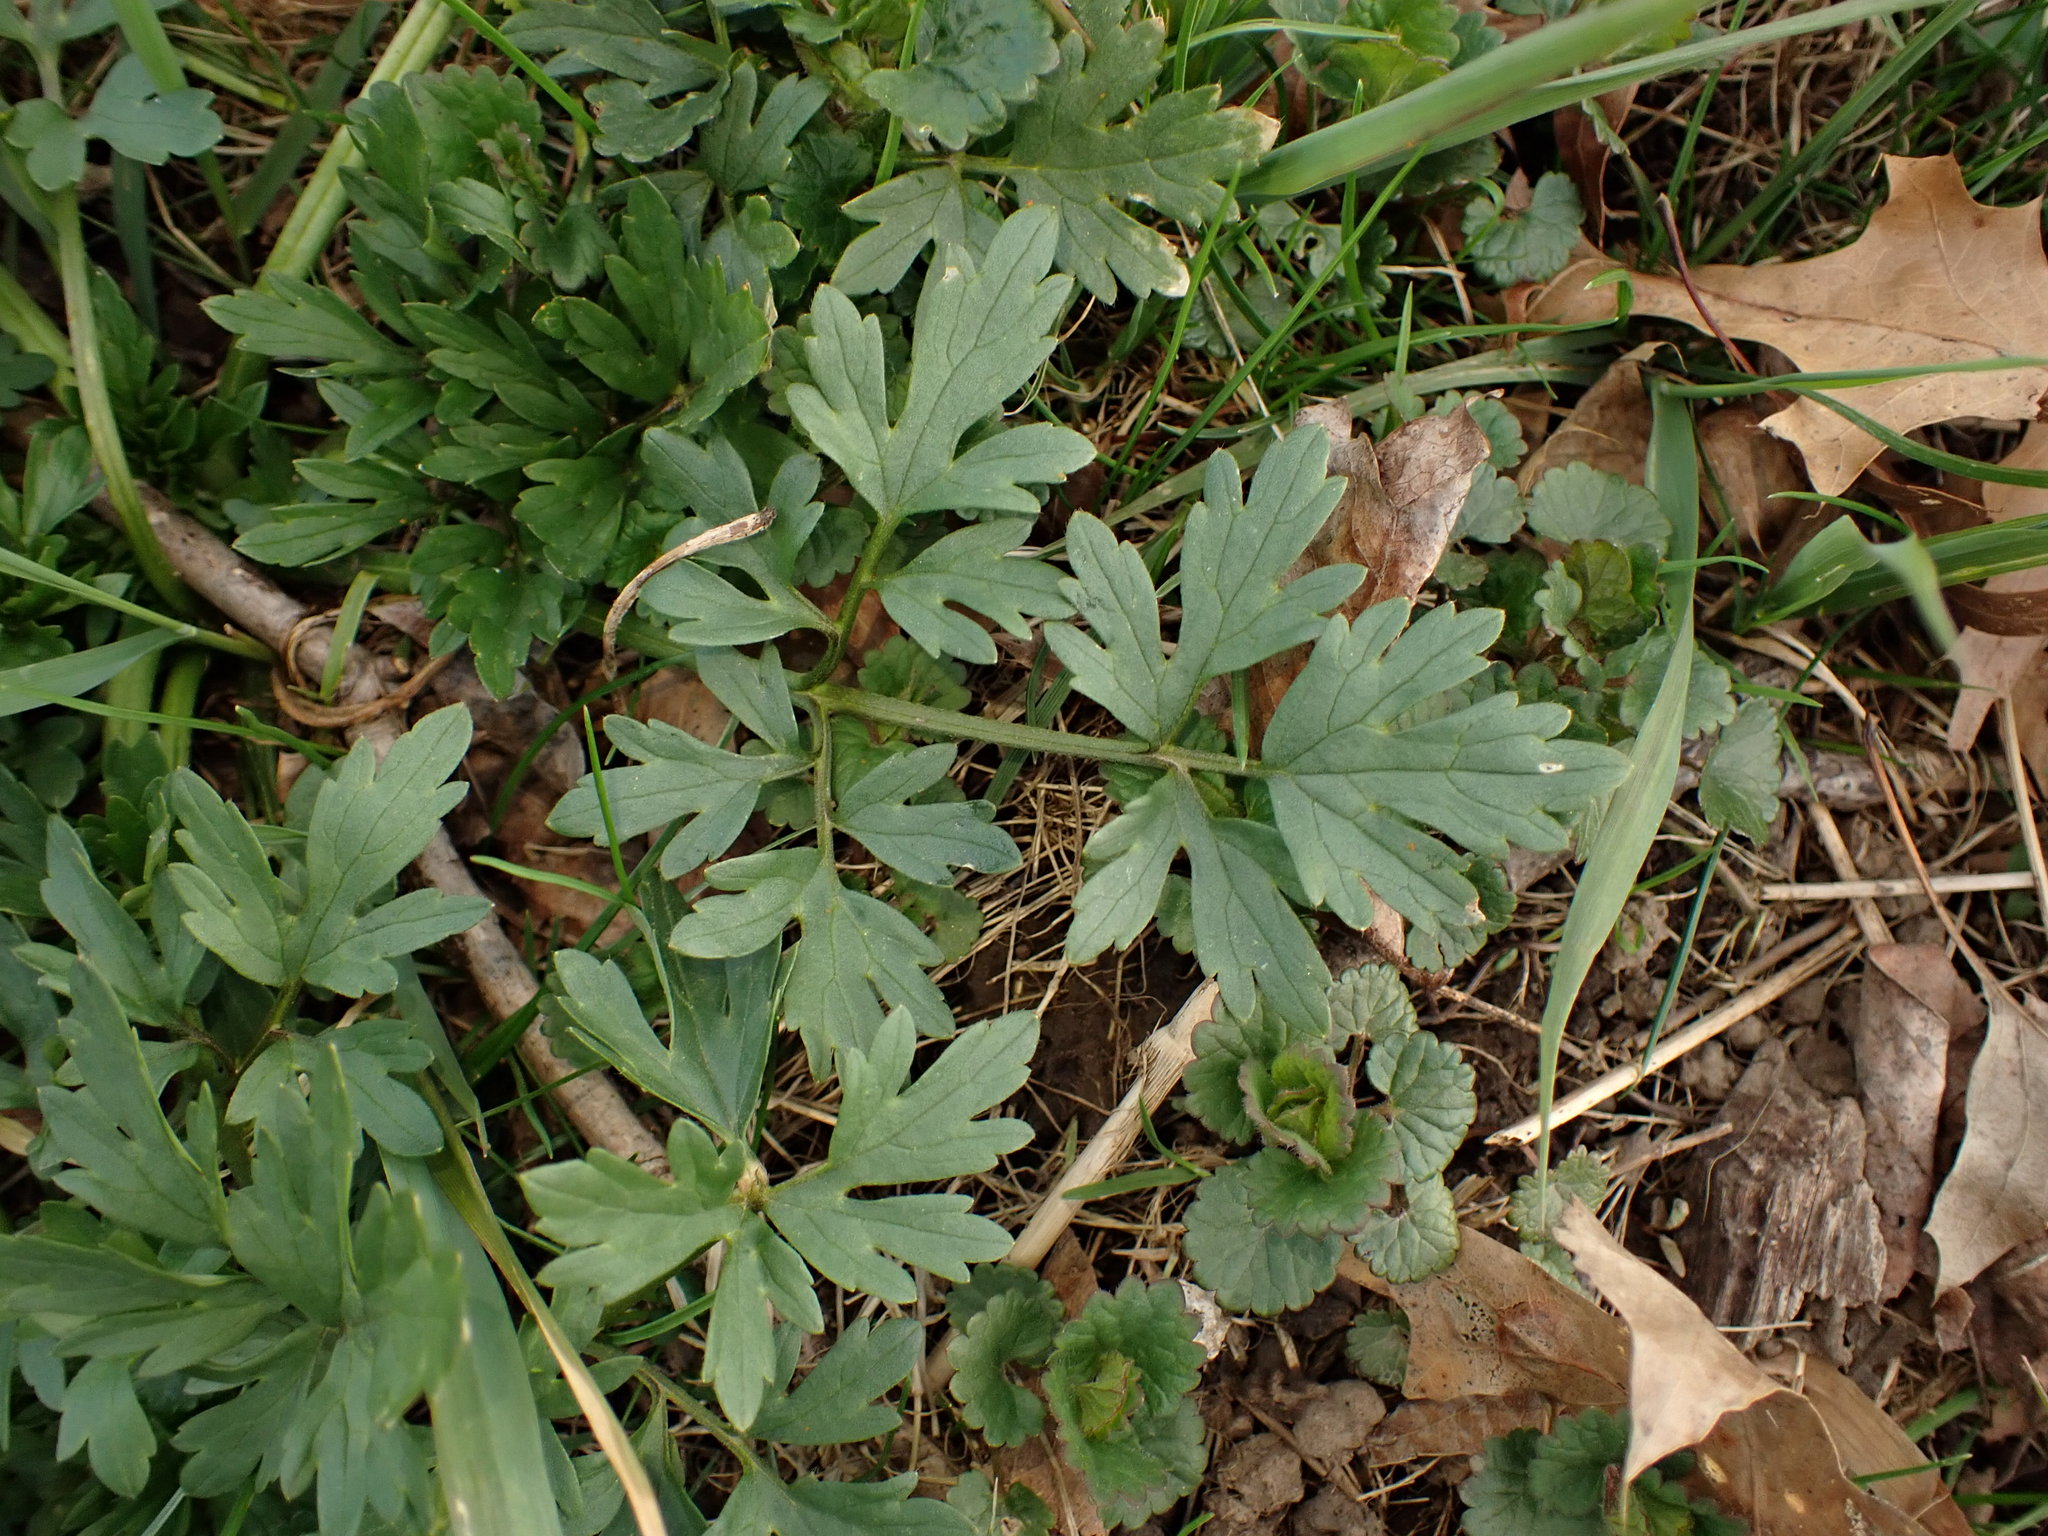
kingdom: Plantae
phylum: Tracheophyta
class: Magnoliopsida
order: Ranunculales
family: Ranunculaceae
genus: Ranunculus
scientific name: Ranunculus repens
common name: Creeping buttercup
